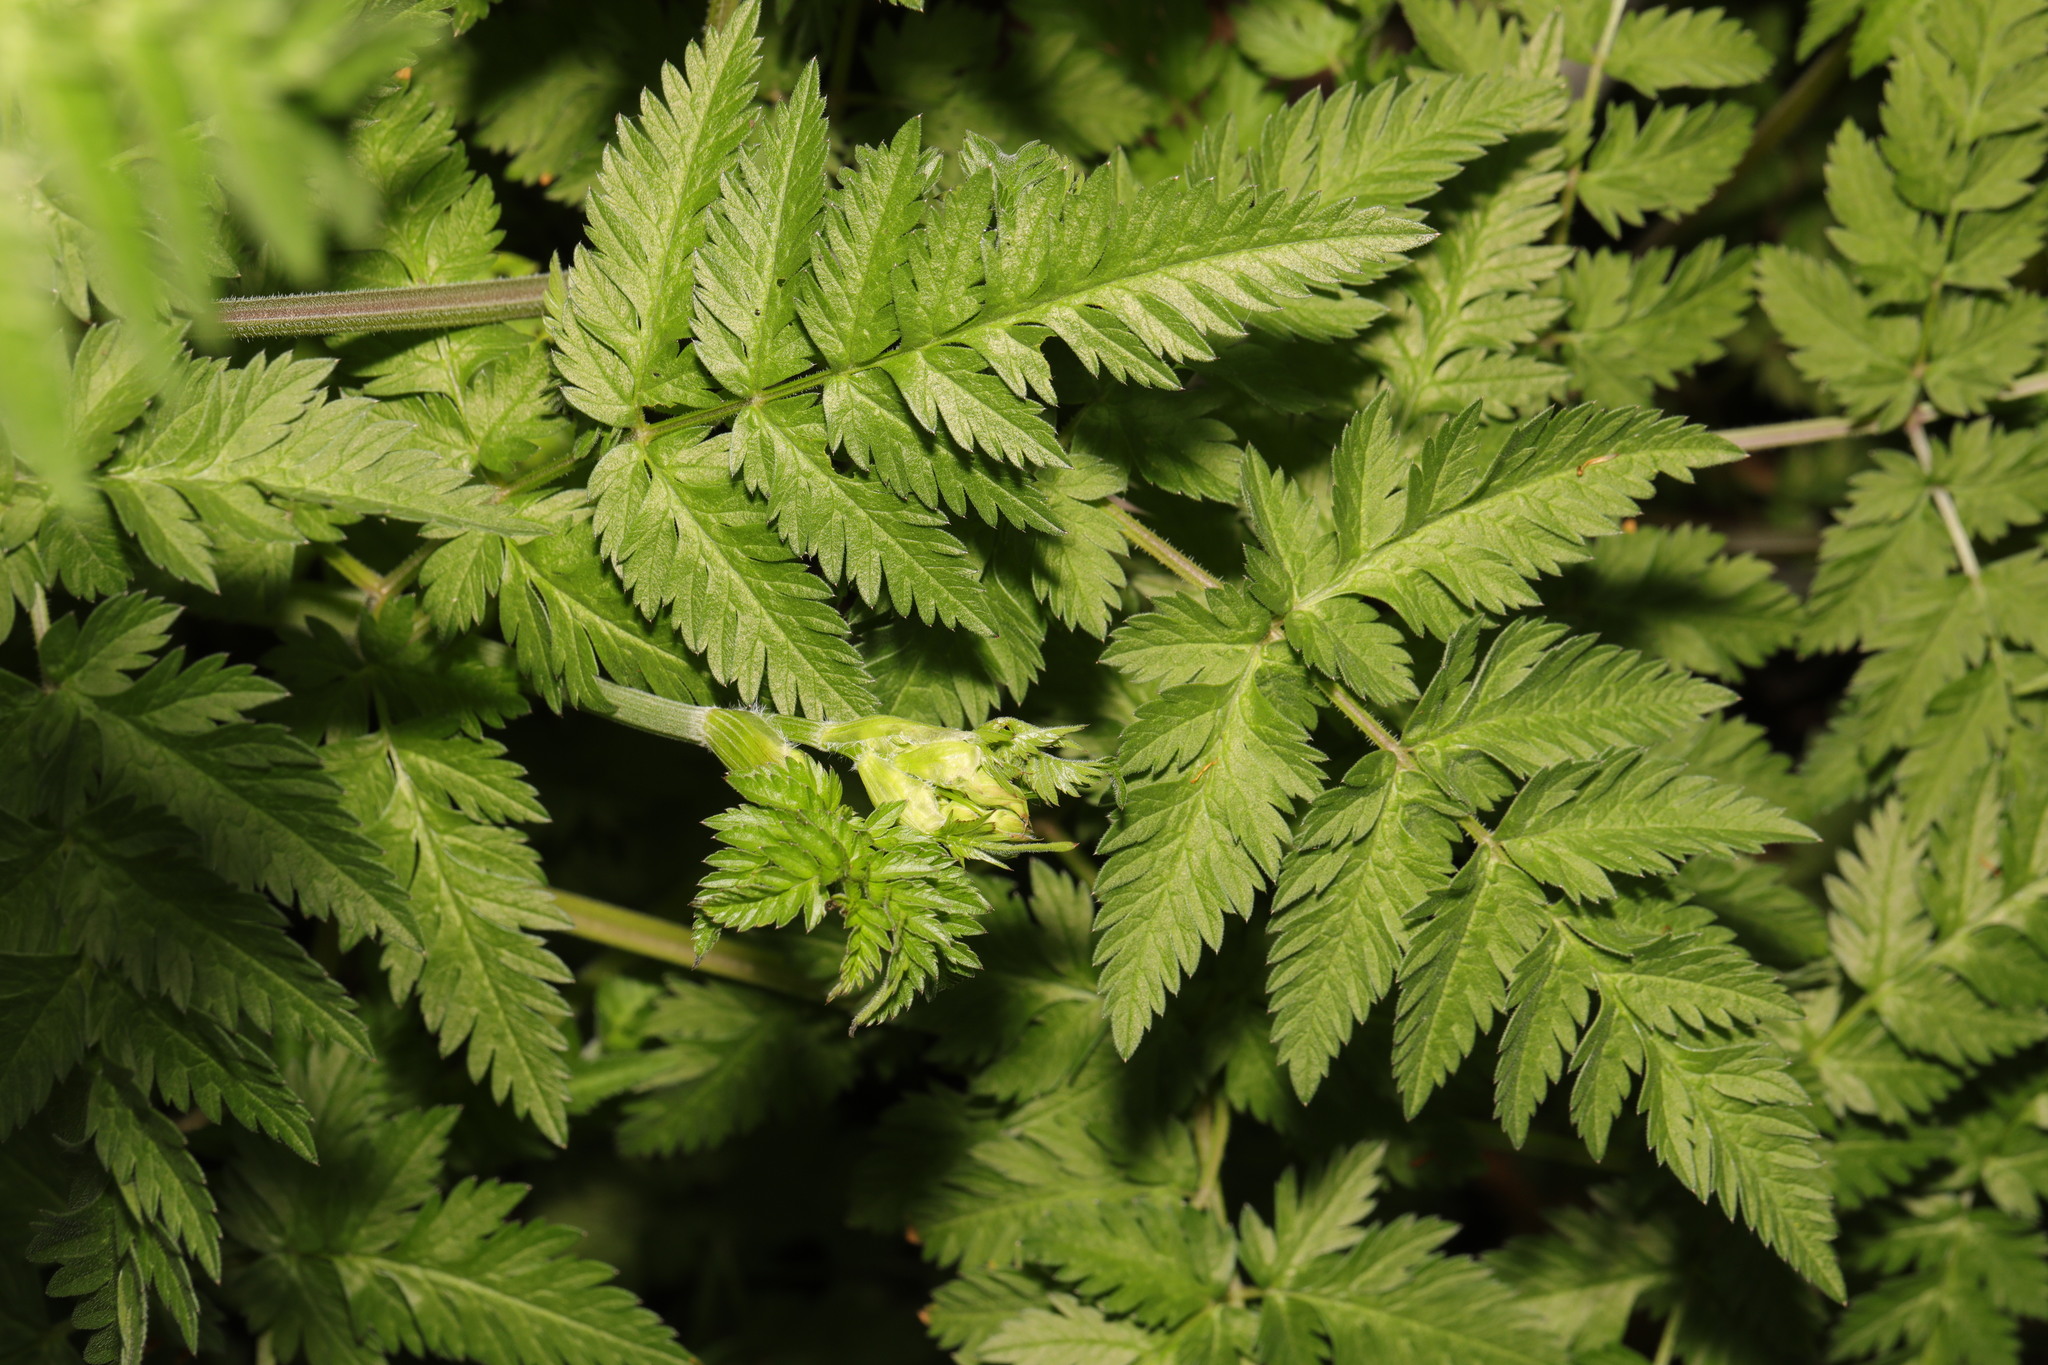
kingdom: Plantae
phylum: Tracheophyta
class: Magnoliopsida
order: Apiales
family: Apiaceae
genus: Anthriscus
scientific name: Anthriscus sylvestris
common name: Cow parsley
